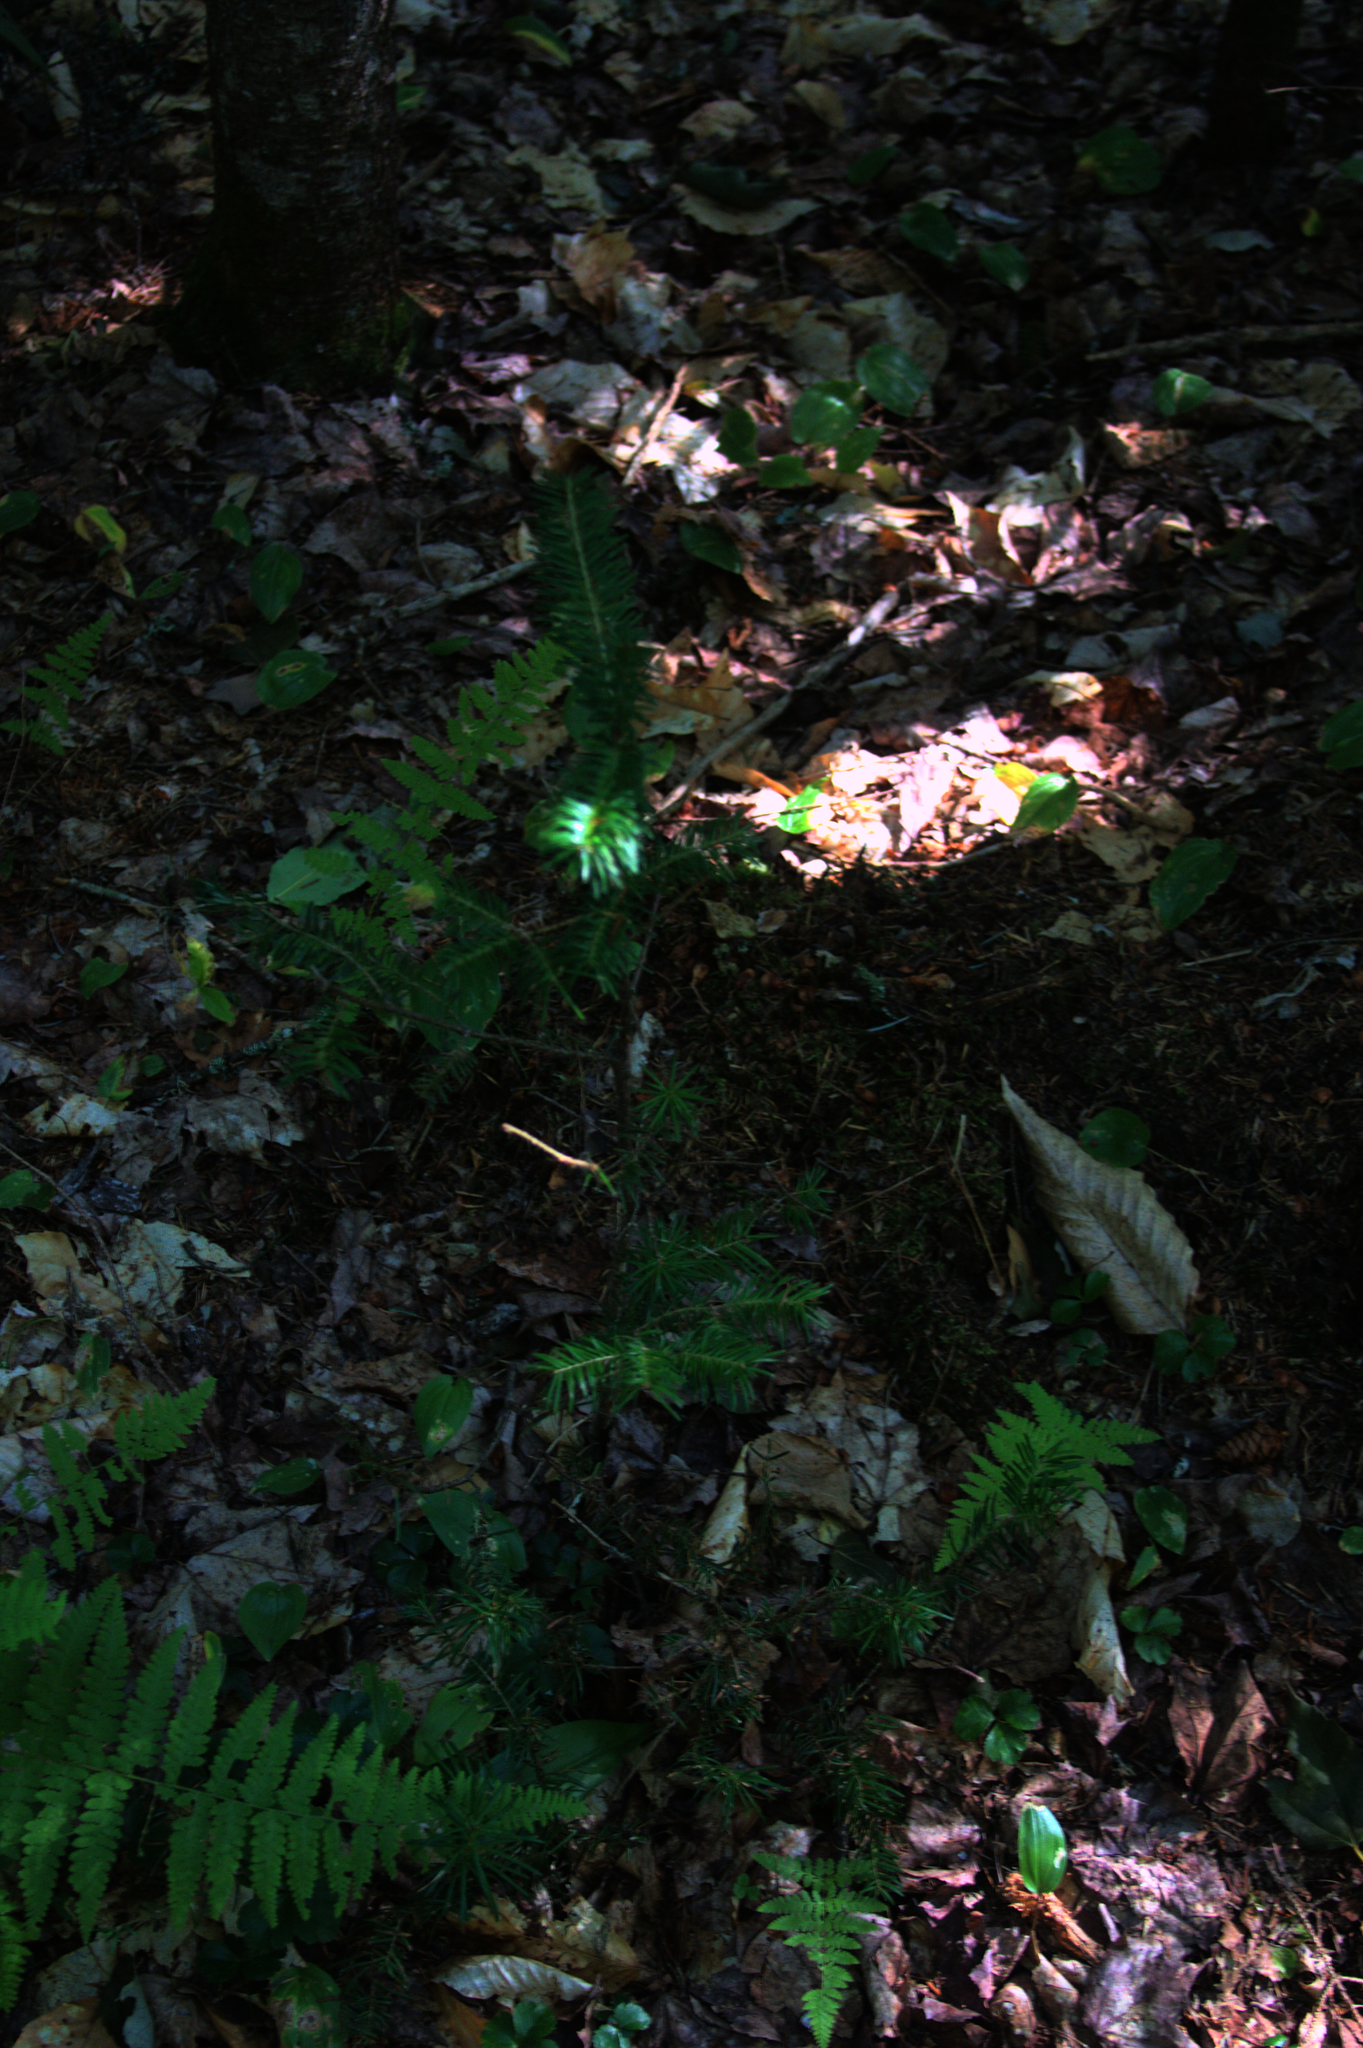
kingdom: Plantae
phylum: Tracheophyta
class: Liliopsida
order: Asparagales
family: Asparagaceae
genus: Maianthemum
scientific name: Maianthemum canadense
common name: False lily-of-the-valley
